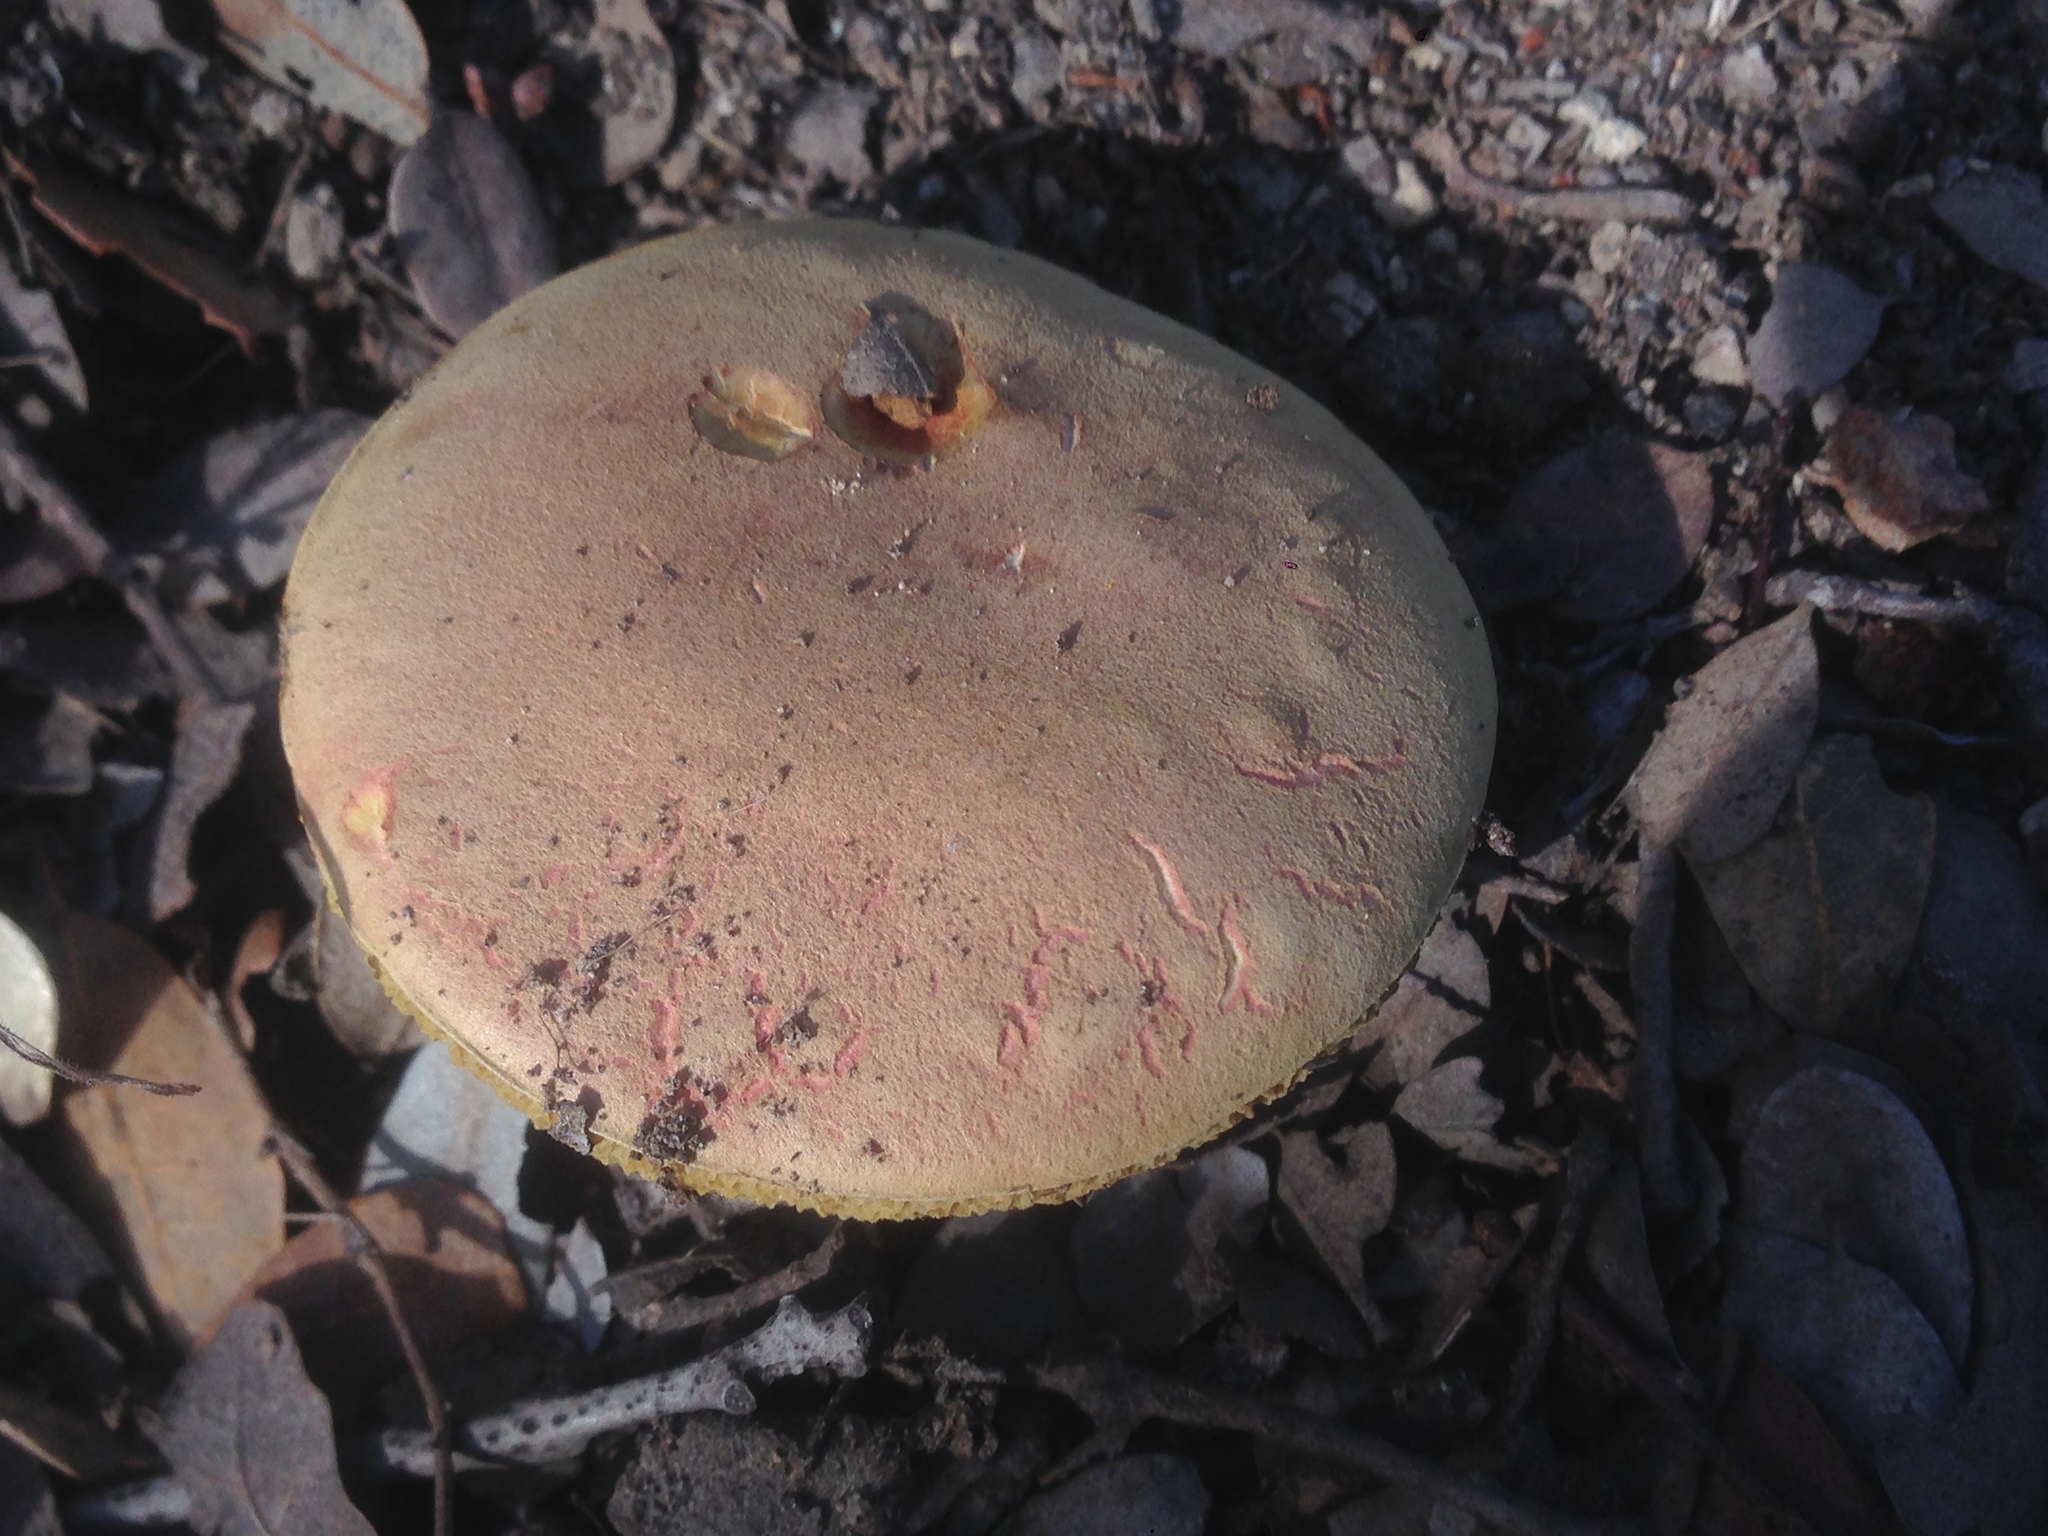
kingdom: Fungi
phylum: Basidiomycota
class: Agaricomycetes
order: Boletales
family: Boletaceae
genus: Xerocomellus
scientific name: Xerocomellus dryophilus
